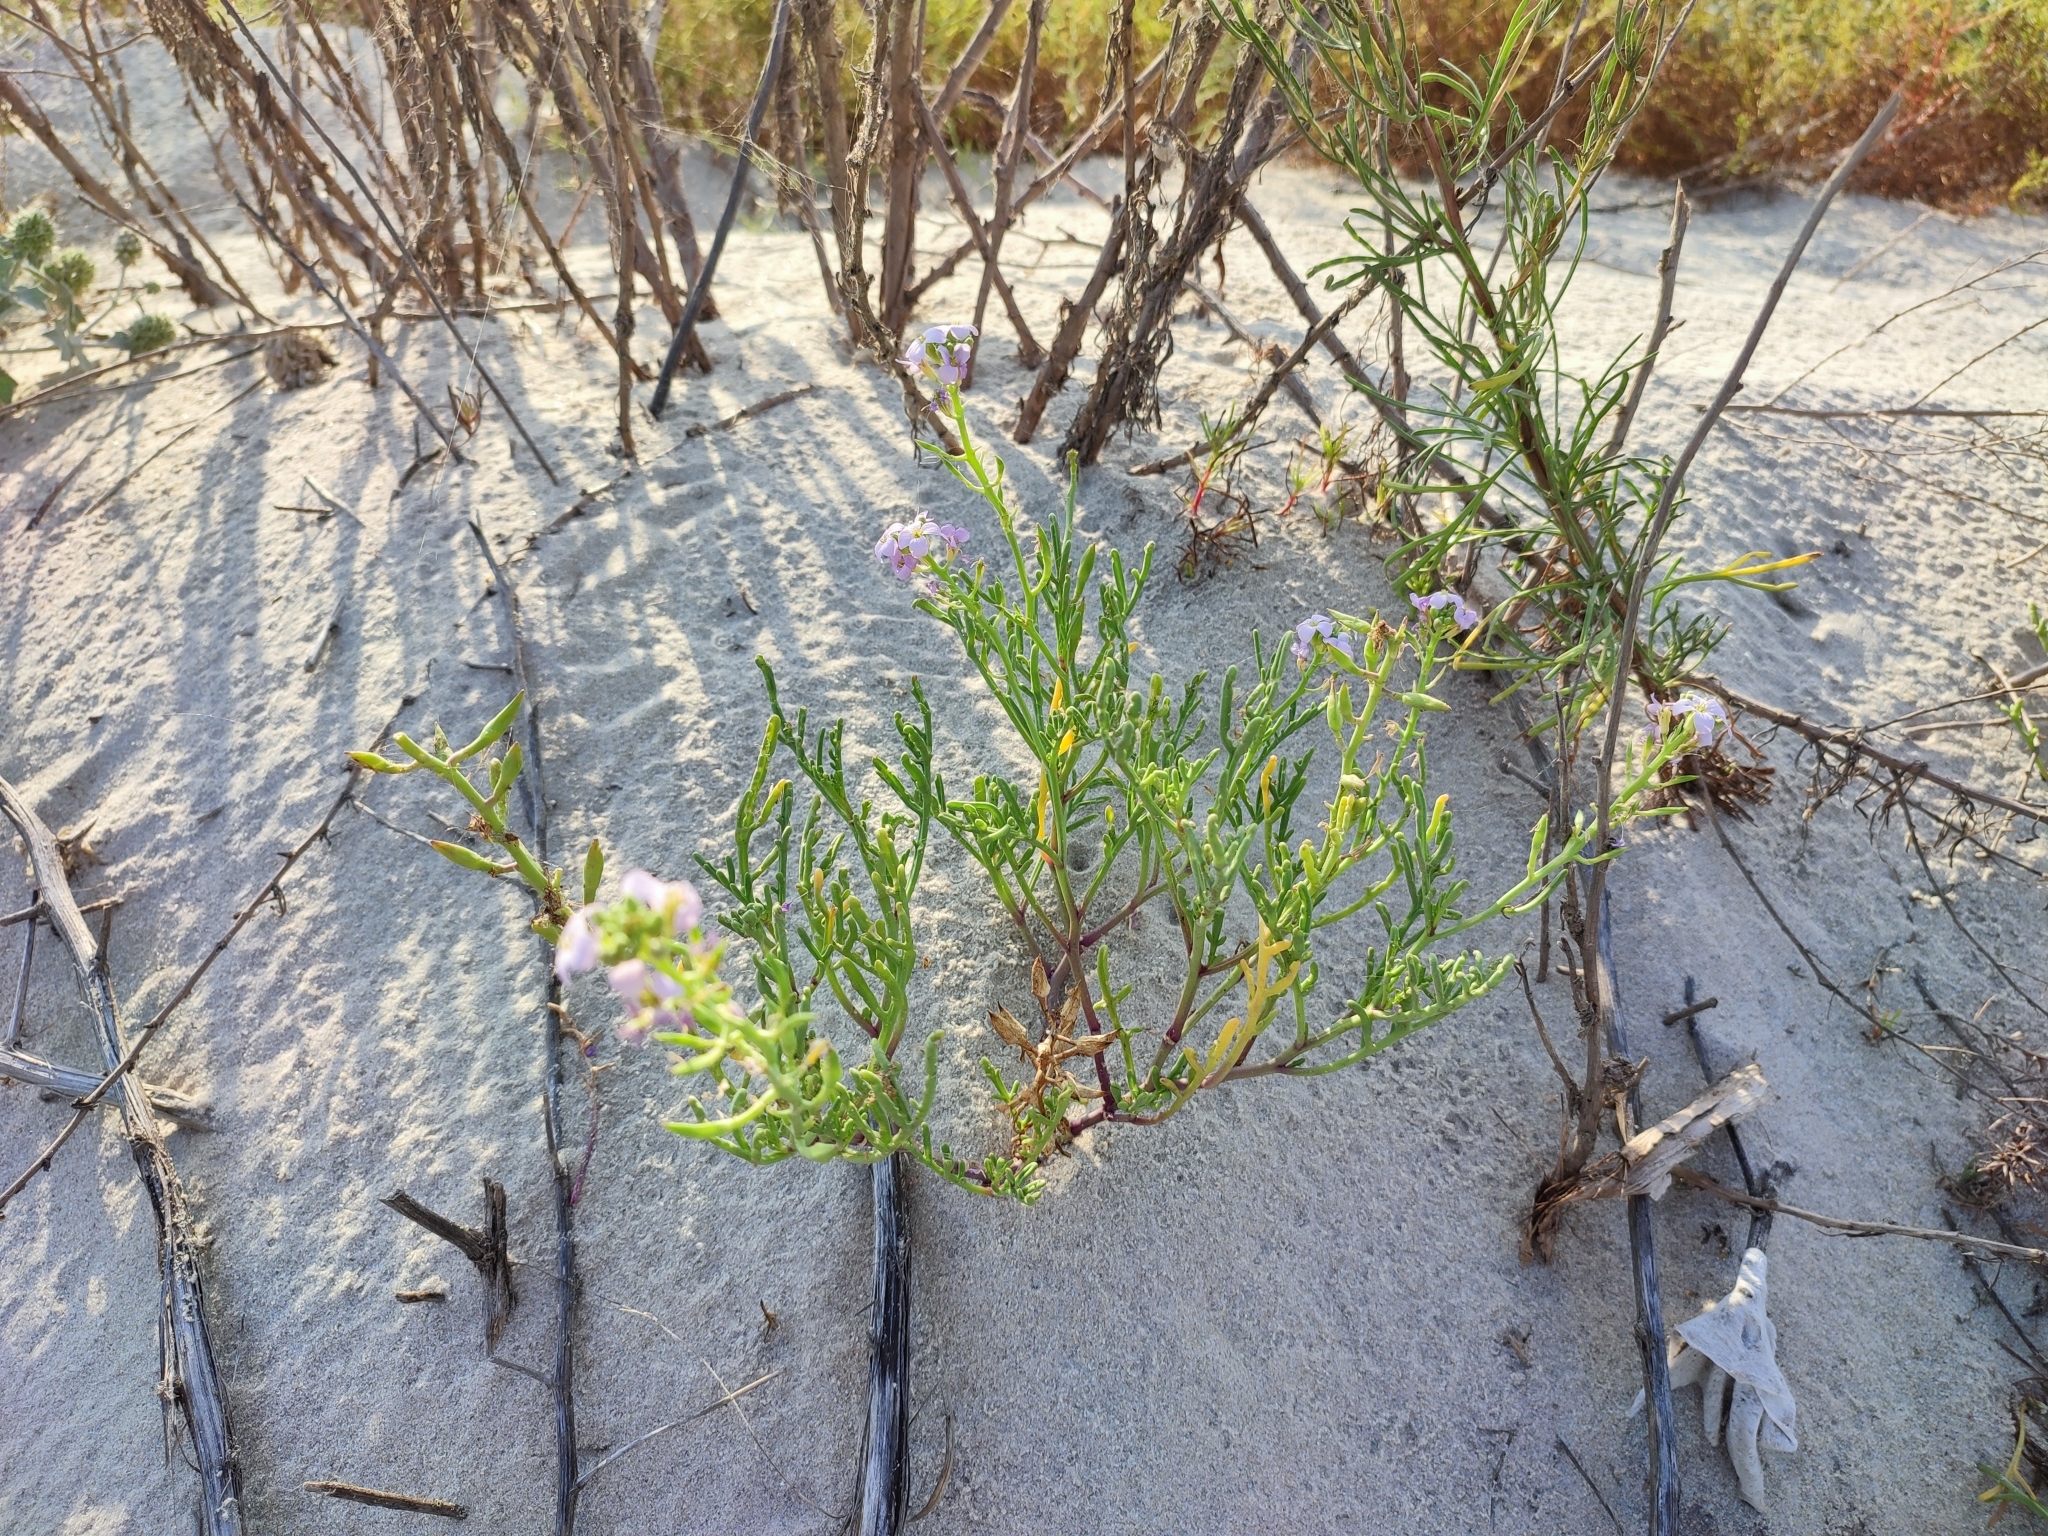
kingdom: Plantae
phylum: Tracheophyta
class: Magnoliopsida
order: Brassicales
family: Brassicaceae
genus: Cakile
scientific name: Cakile maritima
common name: Sea rocket
